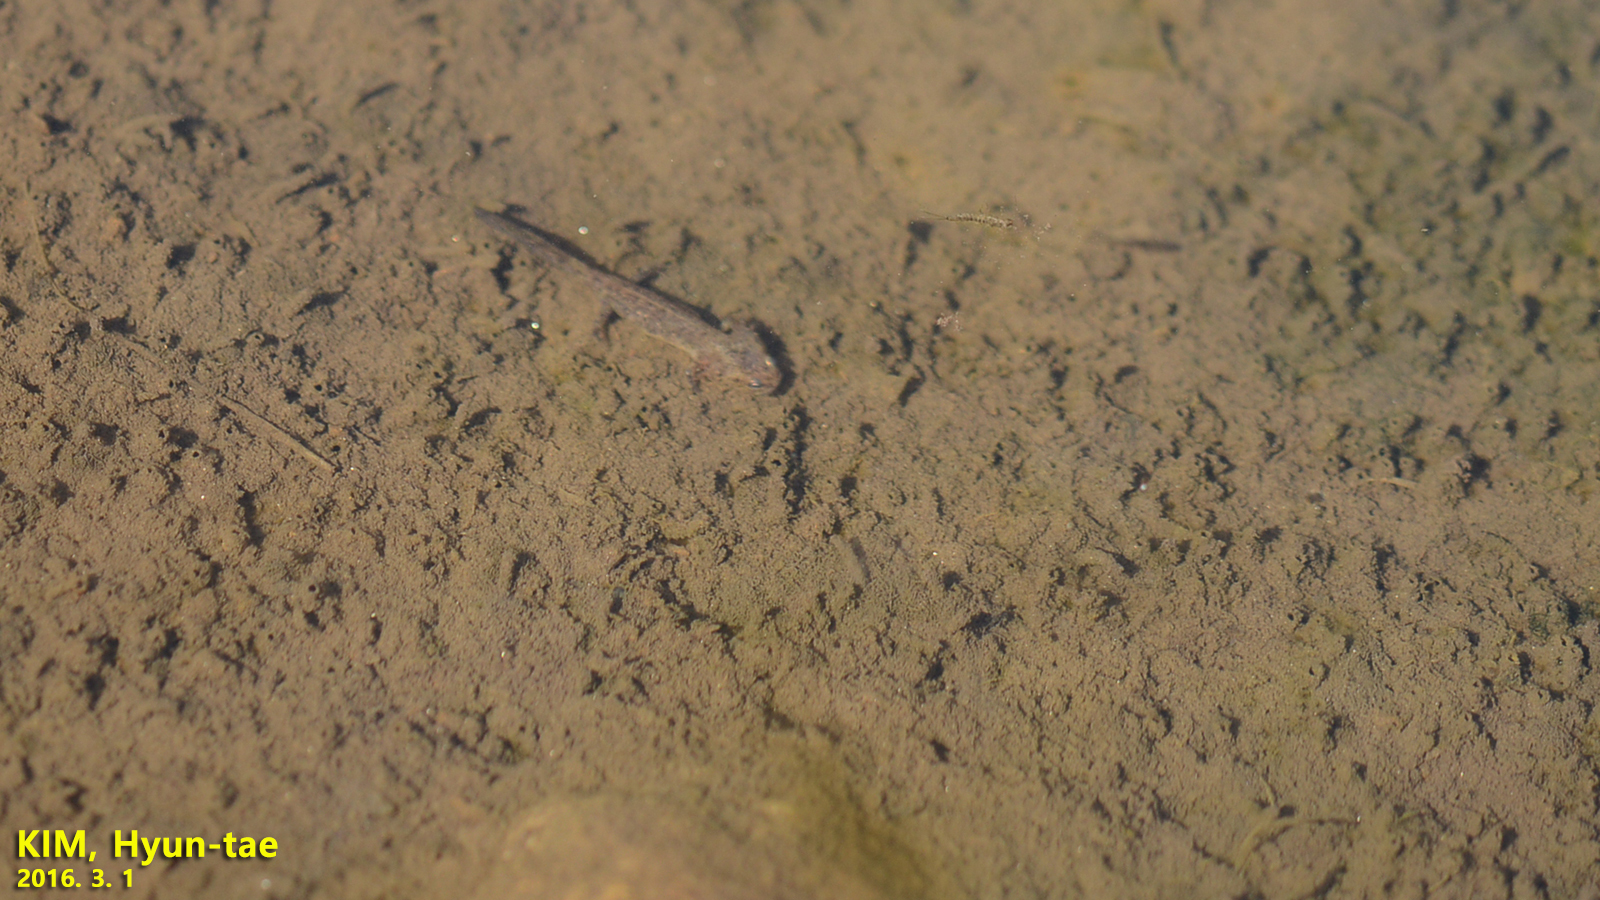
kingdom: Animalia
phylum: Chordata
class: Amphibia
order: Caudata
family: Hynobiidae
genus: Hynobius
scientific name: Hynobius leechii
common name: Gensan salamander
